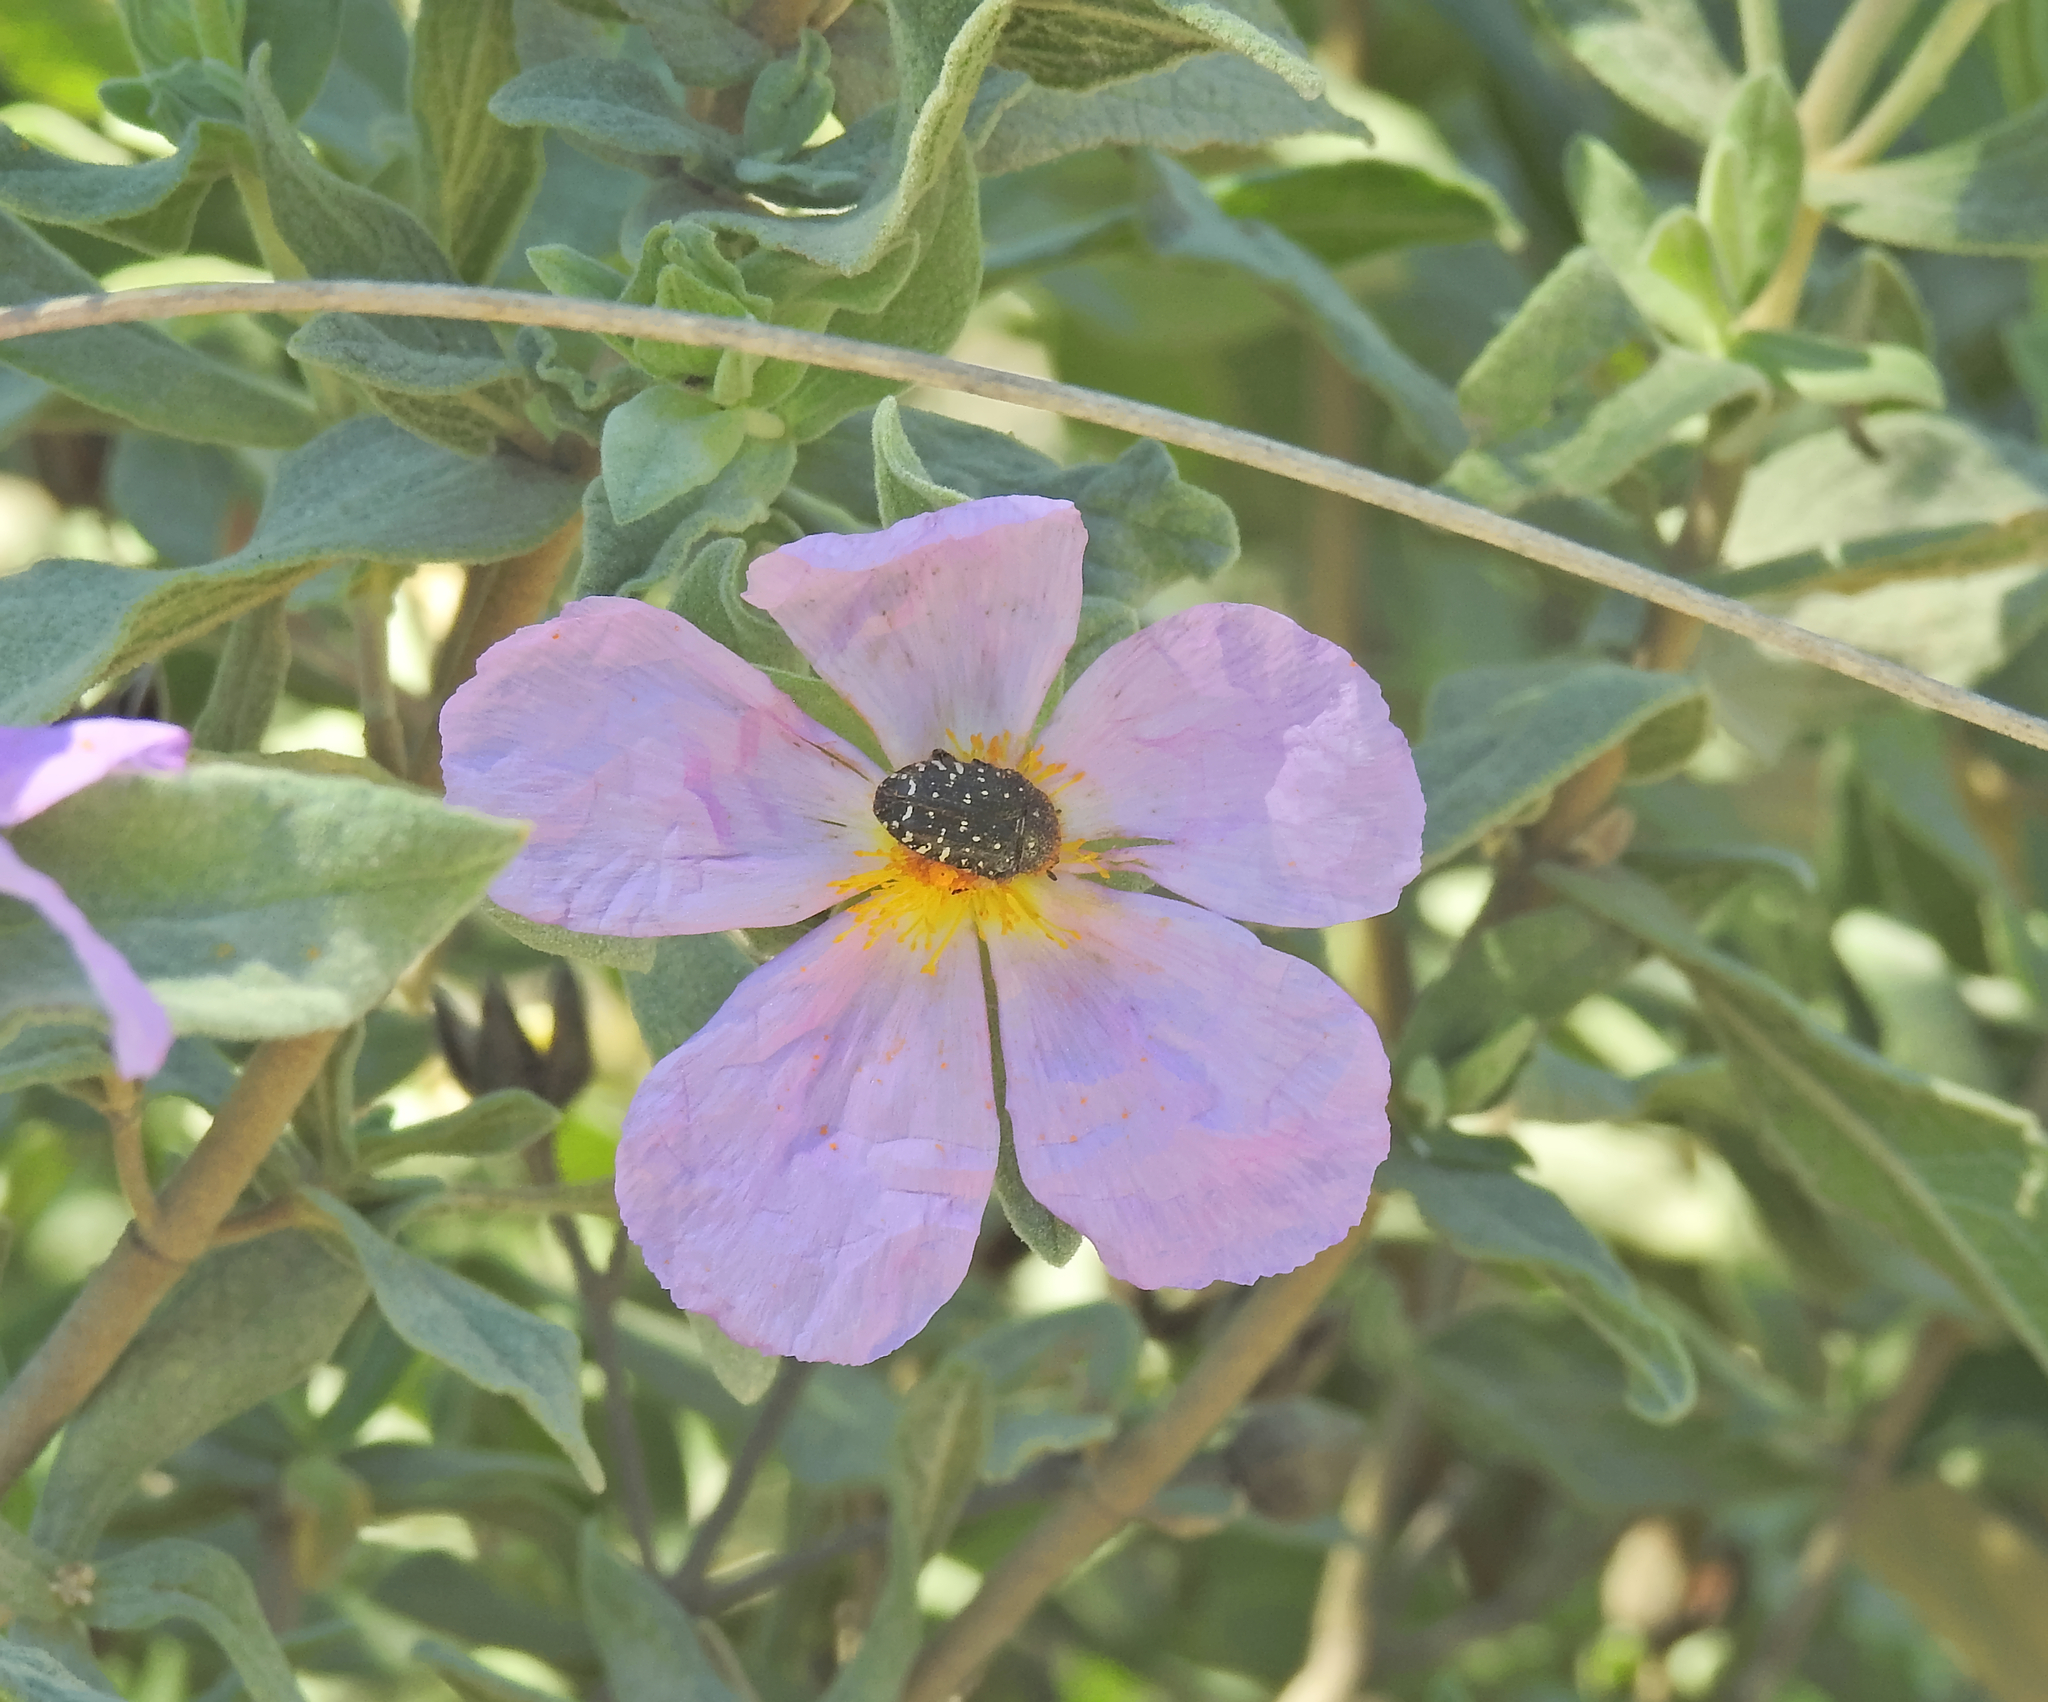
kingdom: Animalia
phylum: Arthropoda
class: Insecta
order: Coleoptera
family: Scarabaeidae
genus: Oxythyrea
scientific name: Oxythyrea funesta
